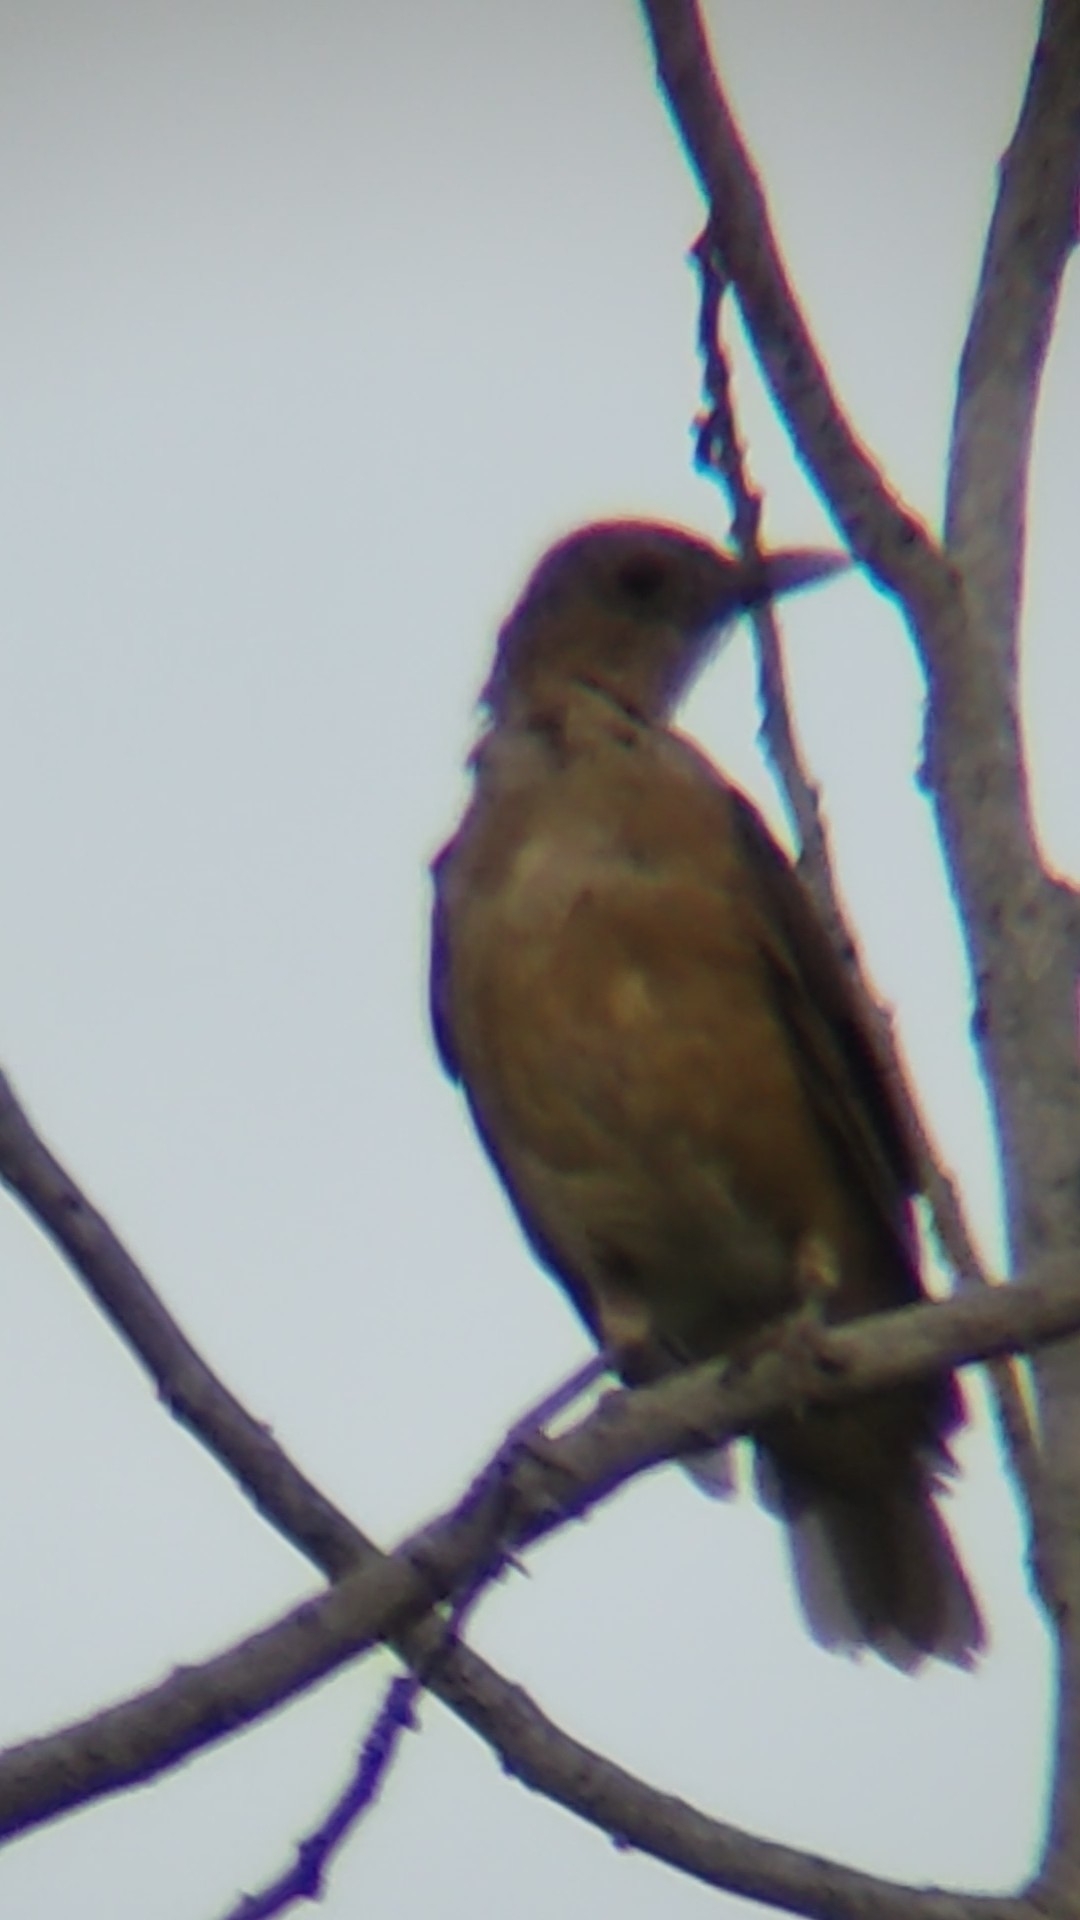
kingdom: Animalia
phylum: Chordata
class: Aves
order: Passeriformes
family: Turdidae
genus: Turdus
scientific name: Turdus grayi
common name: Clay-colored thrush
